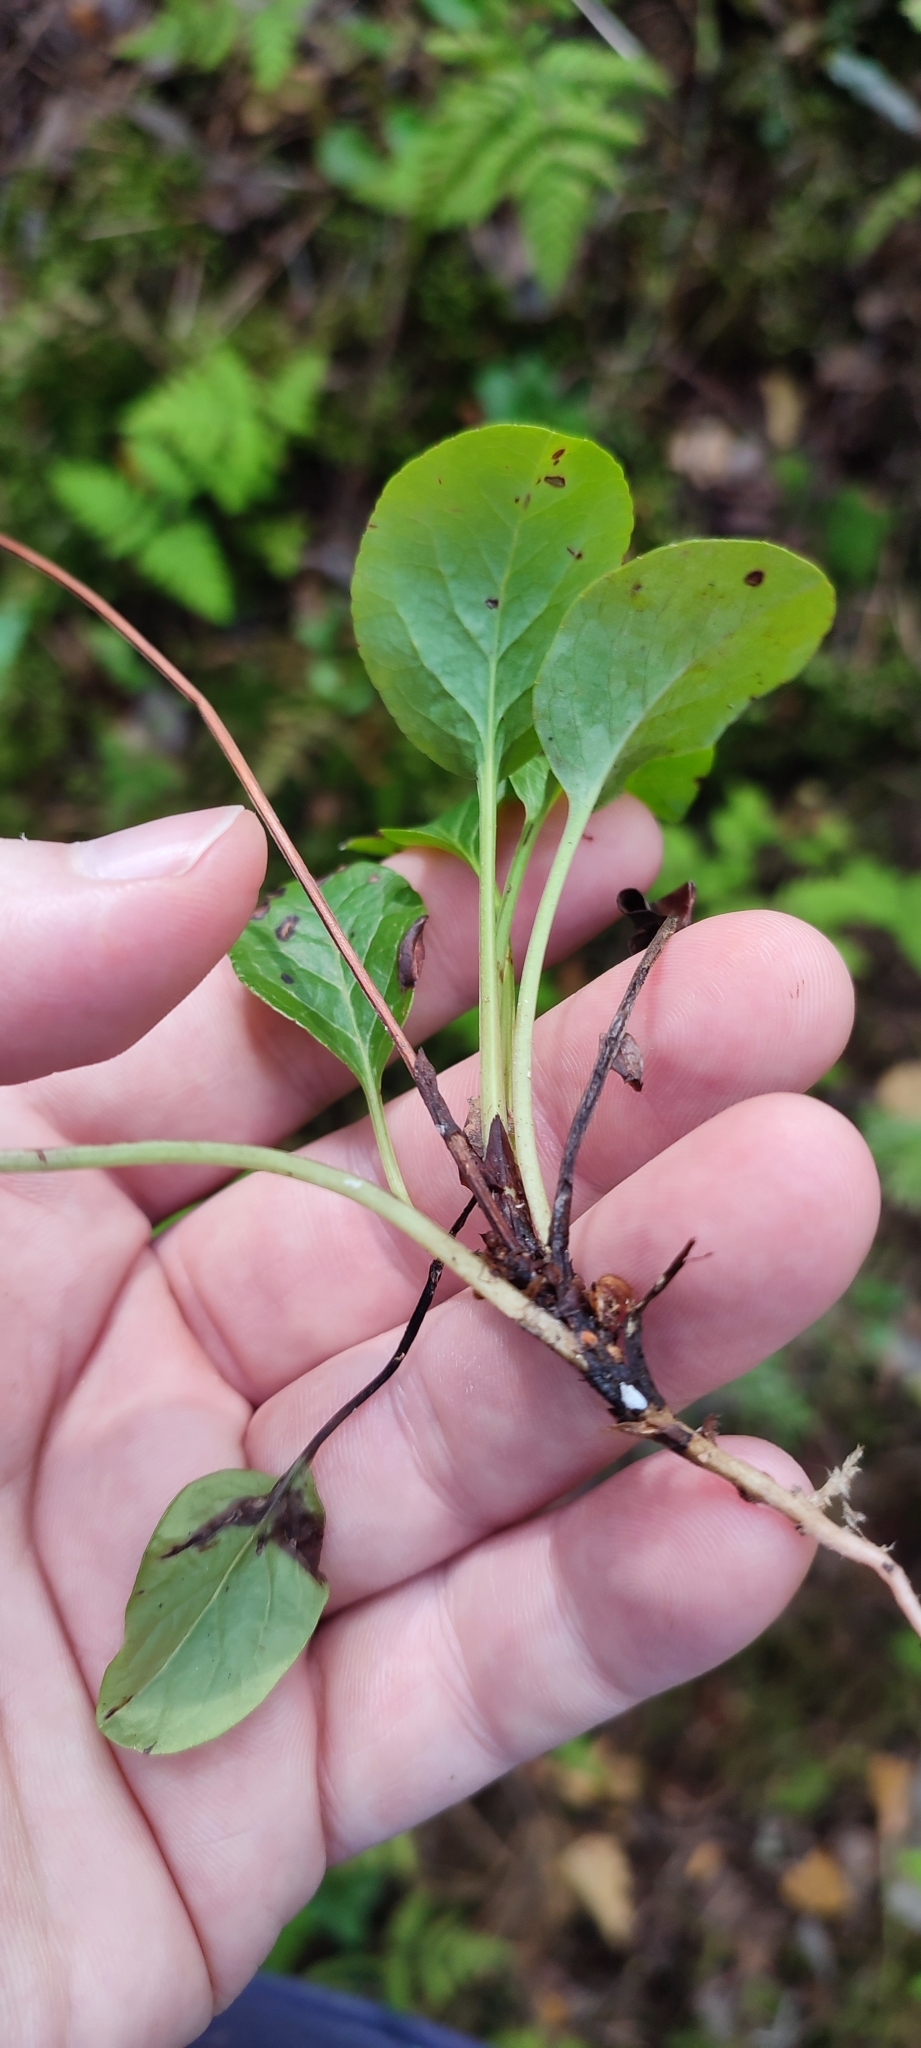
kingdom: Plantae
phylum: Tracheophyta
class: Magnoliopsida
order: Ericales
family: Ericaceae
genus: Pyrola
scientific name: Pyrola rotundifolia
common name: Round-leaved wintergreen
